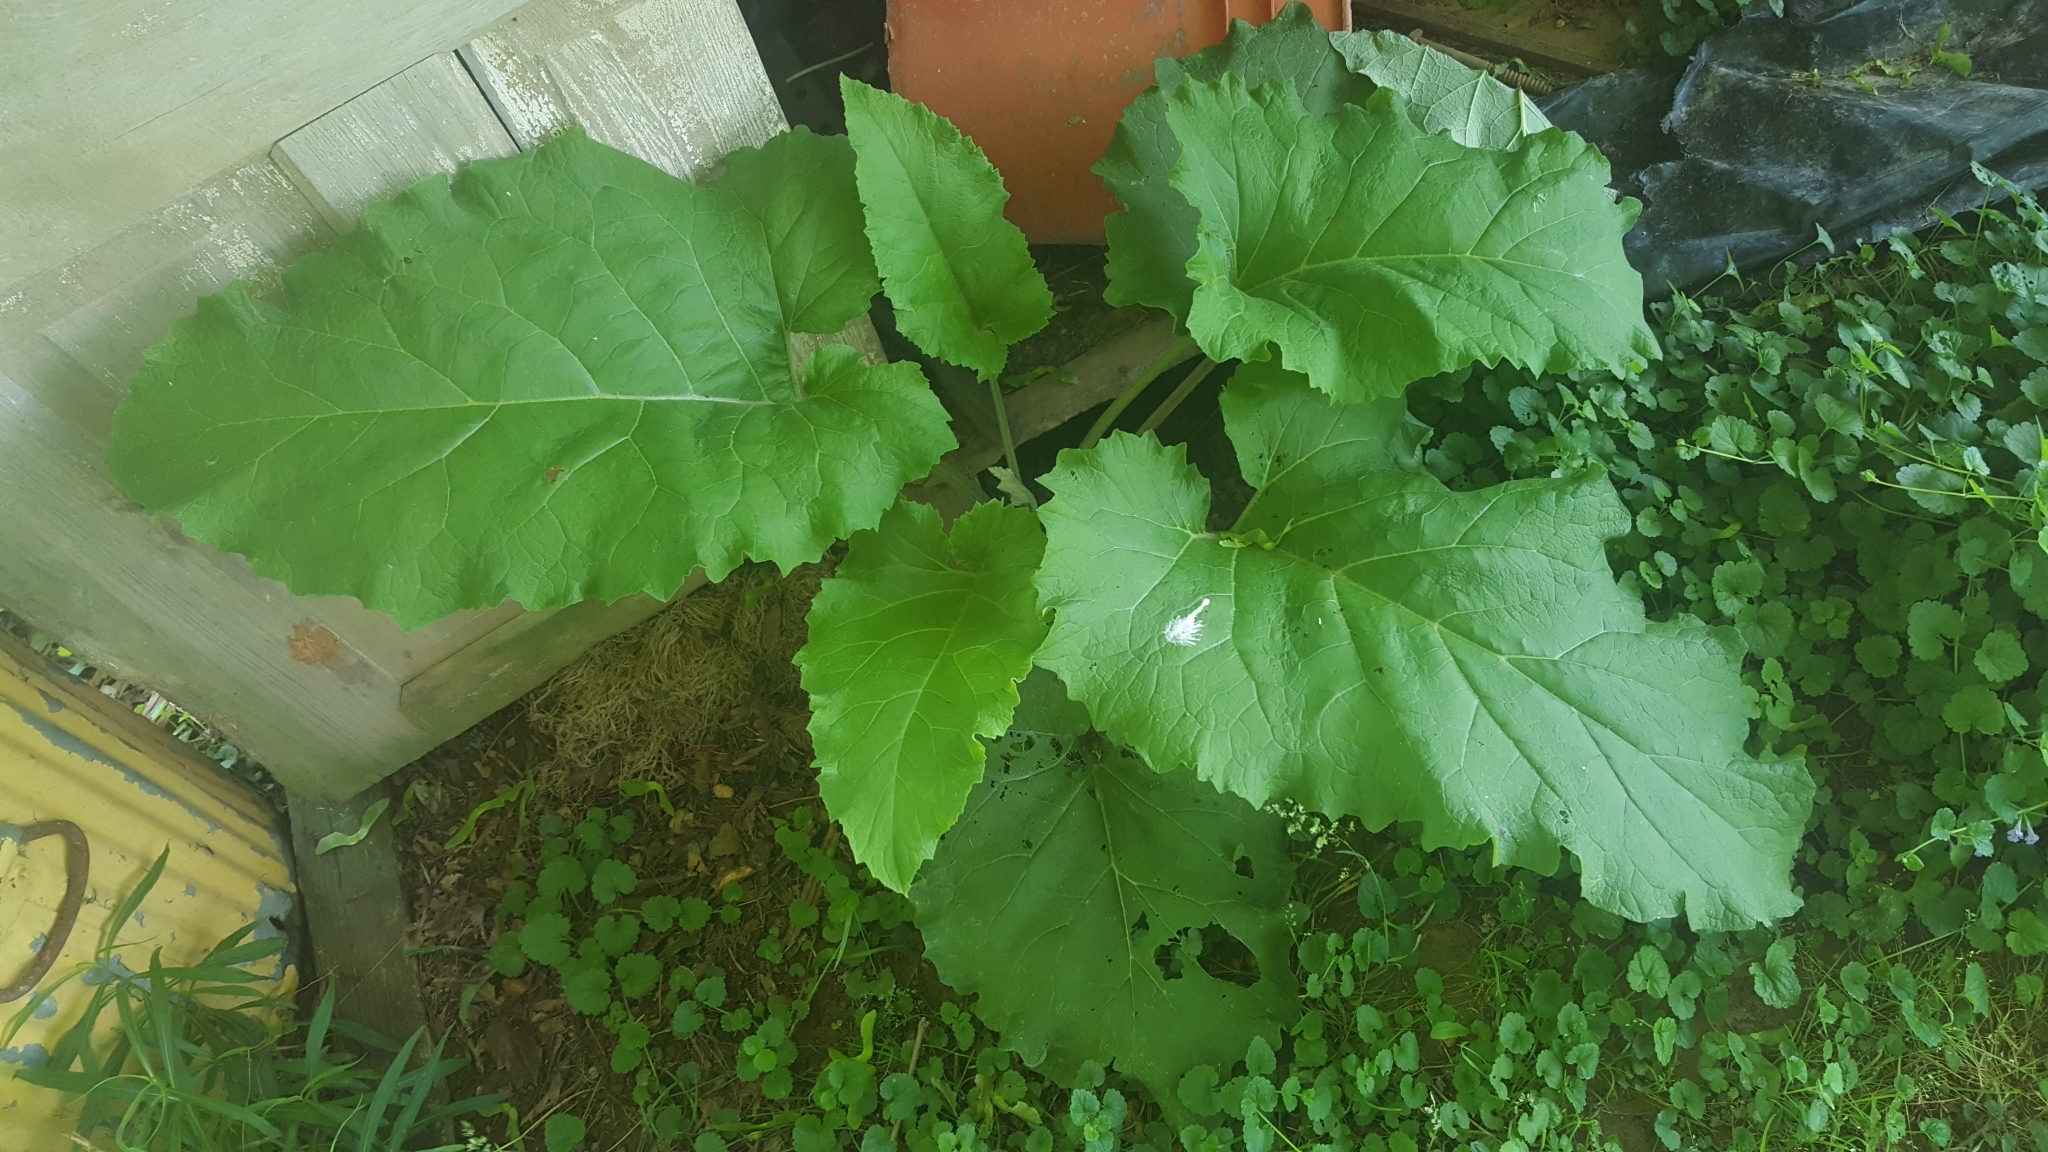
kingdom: Plantae
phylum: Tracheophyta
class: Magnoliopsida
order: Asterales
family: Asteraceae
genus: Arctium
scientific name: Arctium
